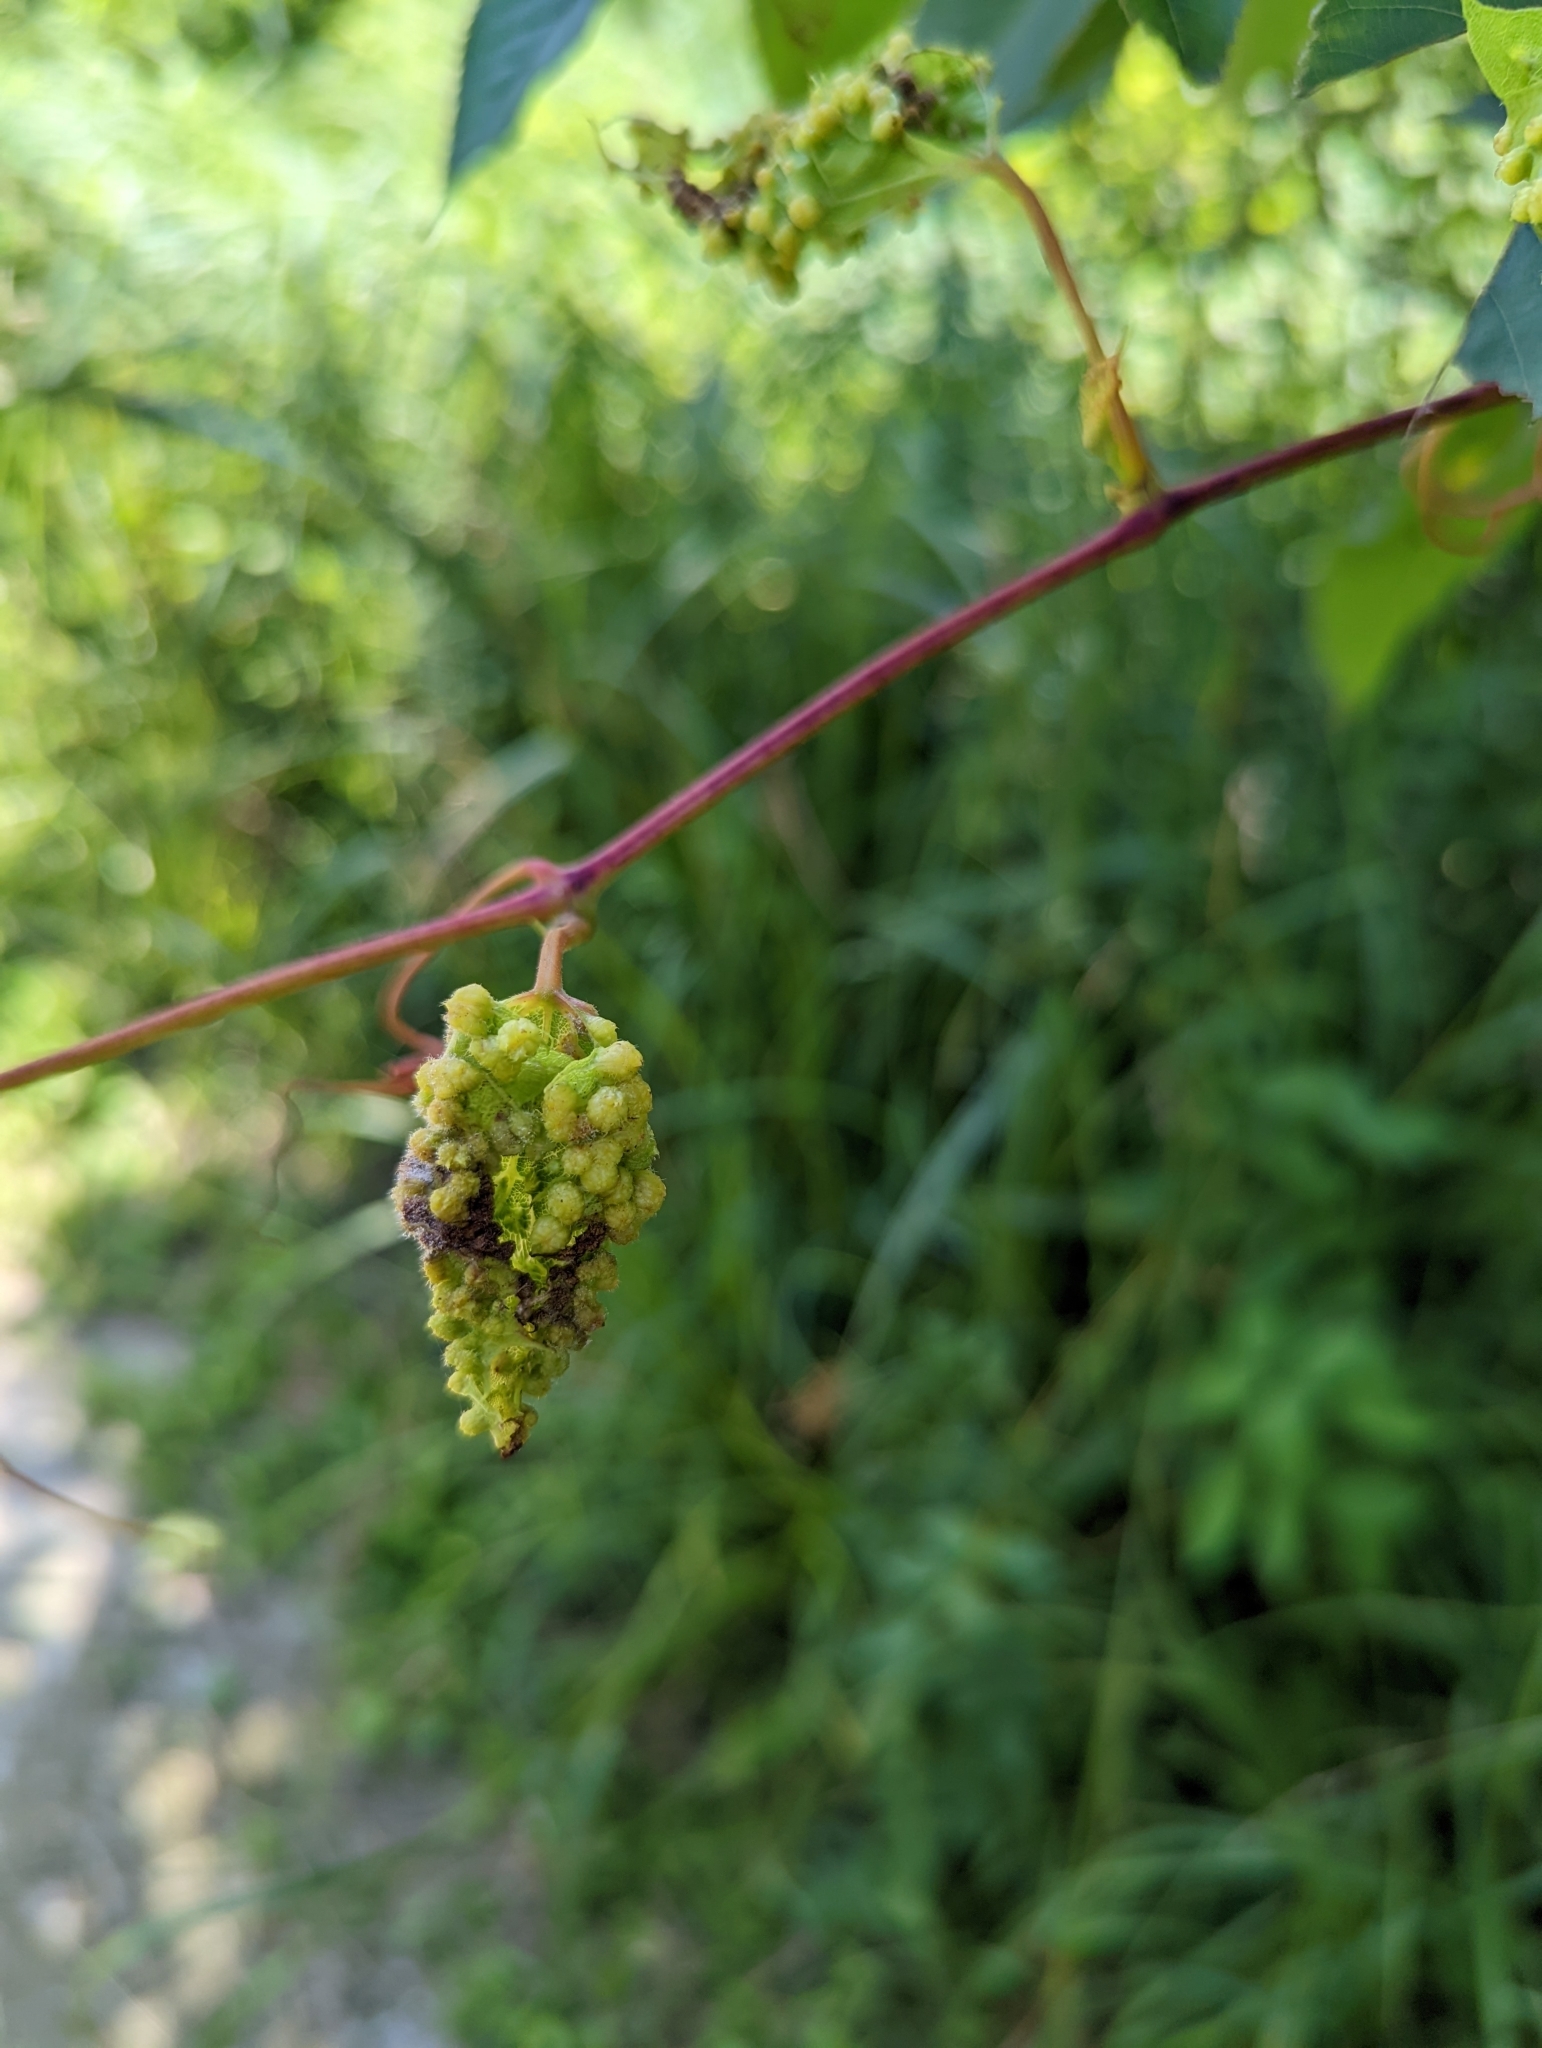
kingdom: Animalia
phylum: Arthropoda
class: Insecta
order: Hemiptera
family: Phylloxeridae
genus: Daktulosphaira
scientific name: Daktulosphaira vitifoliae
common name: Grape phylloxera
